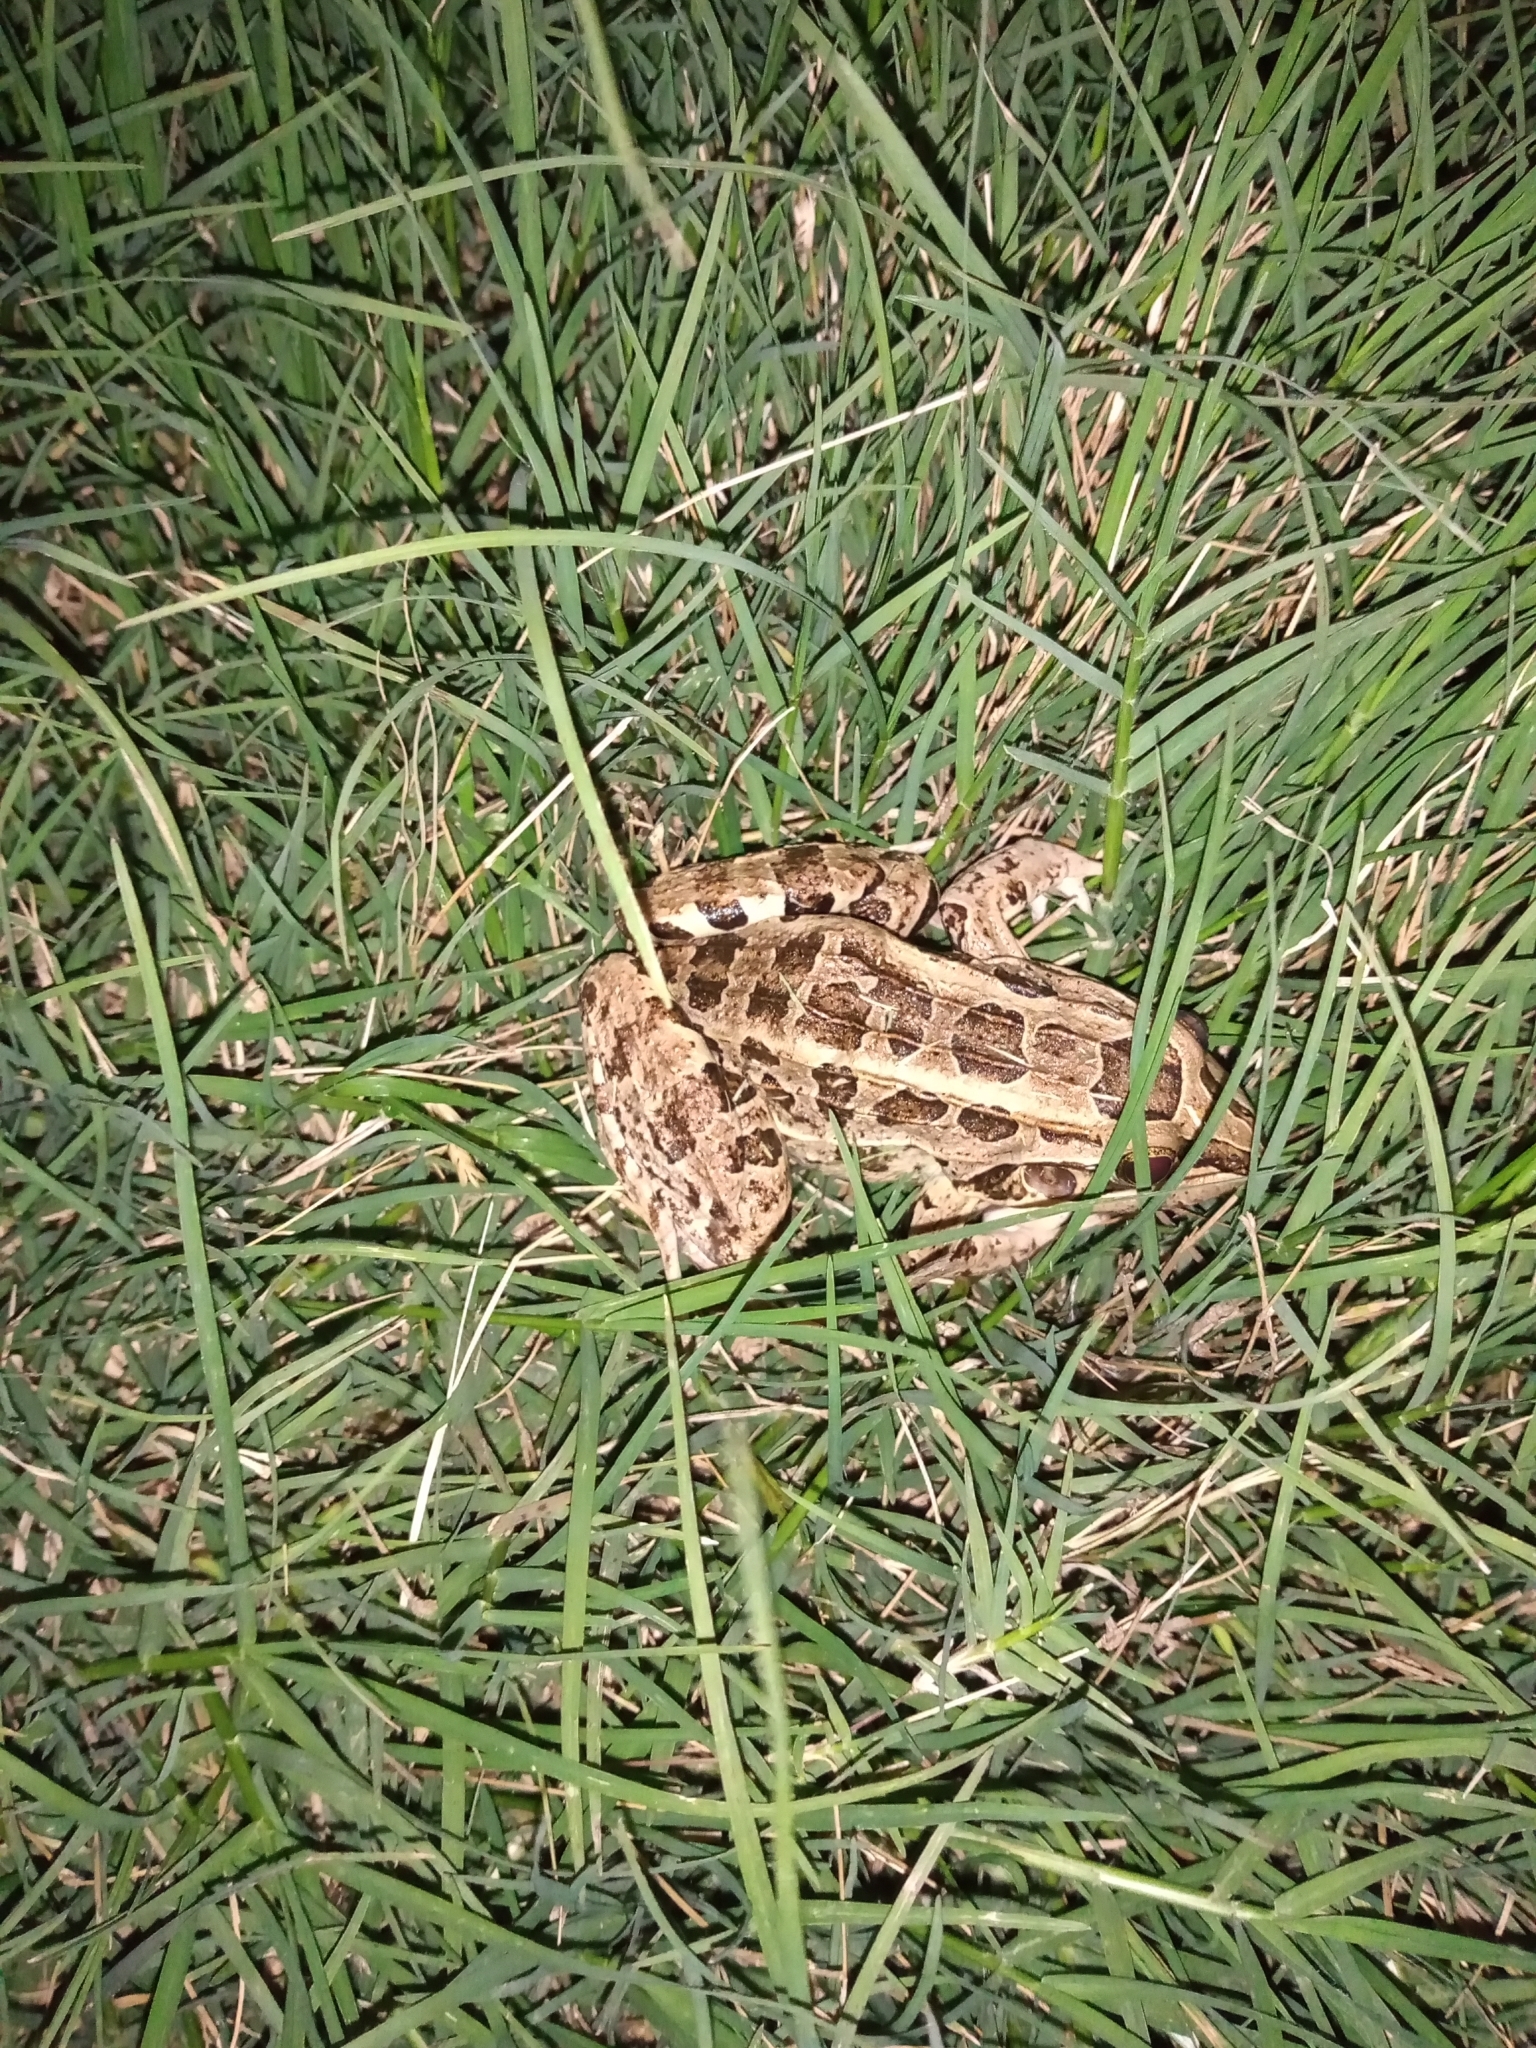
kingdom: Animalia
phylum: Chordata
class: Amphibia
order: Anura
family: Leptodactylidae
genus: Leptodactylus
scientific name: Leptodactylus
